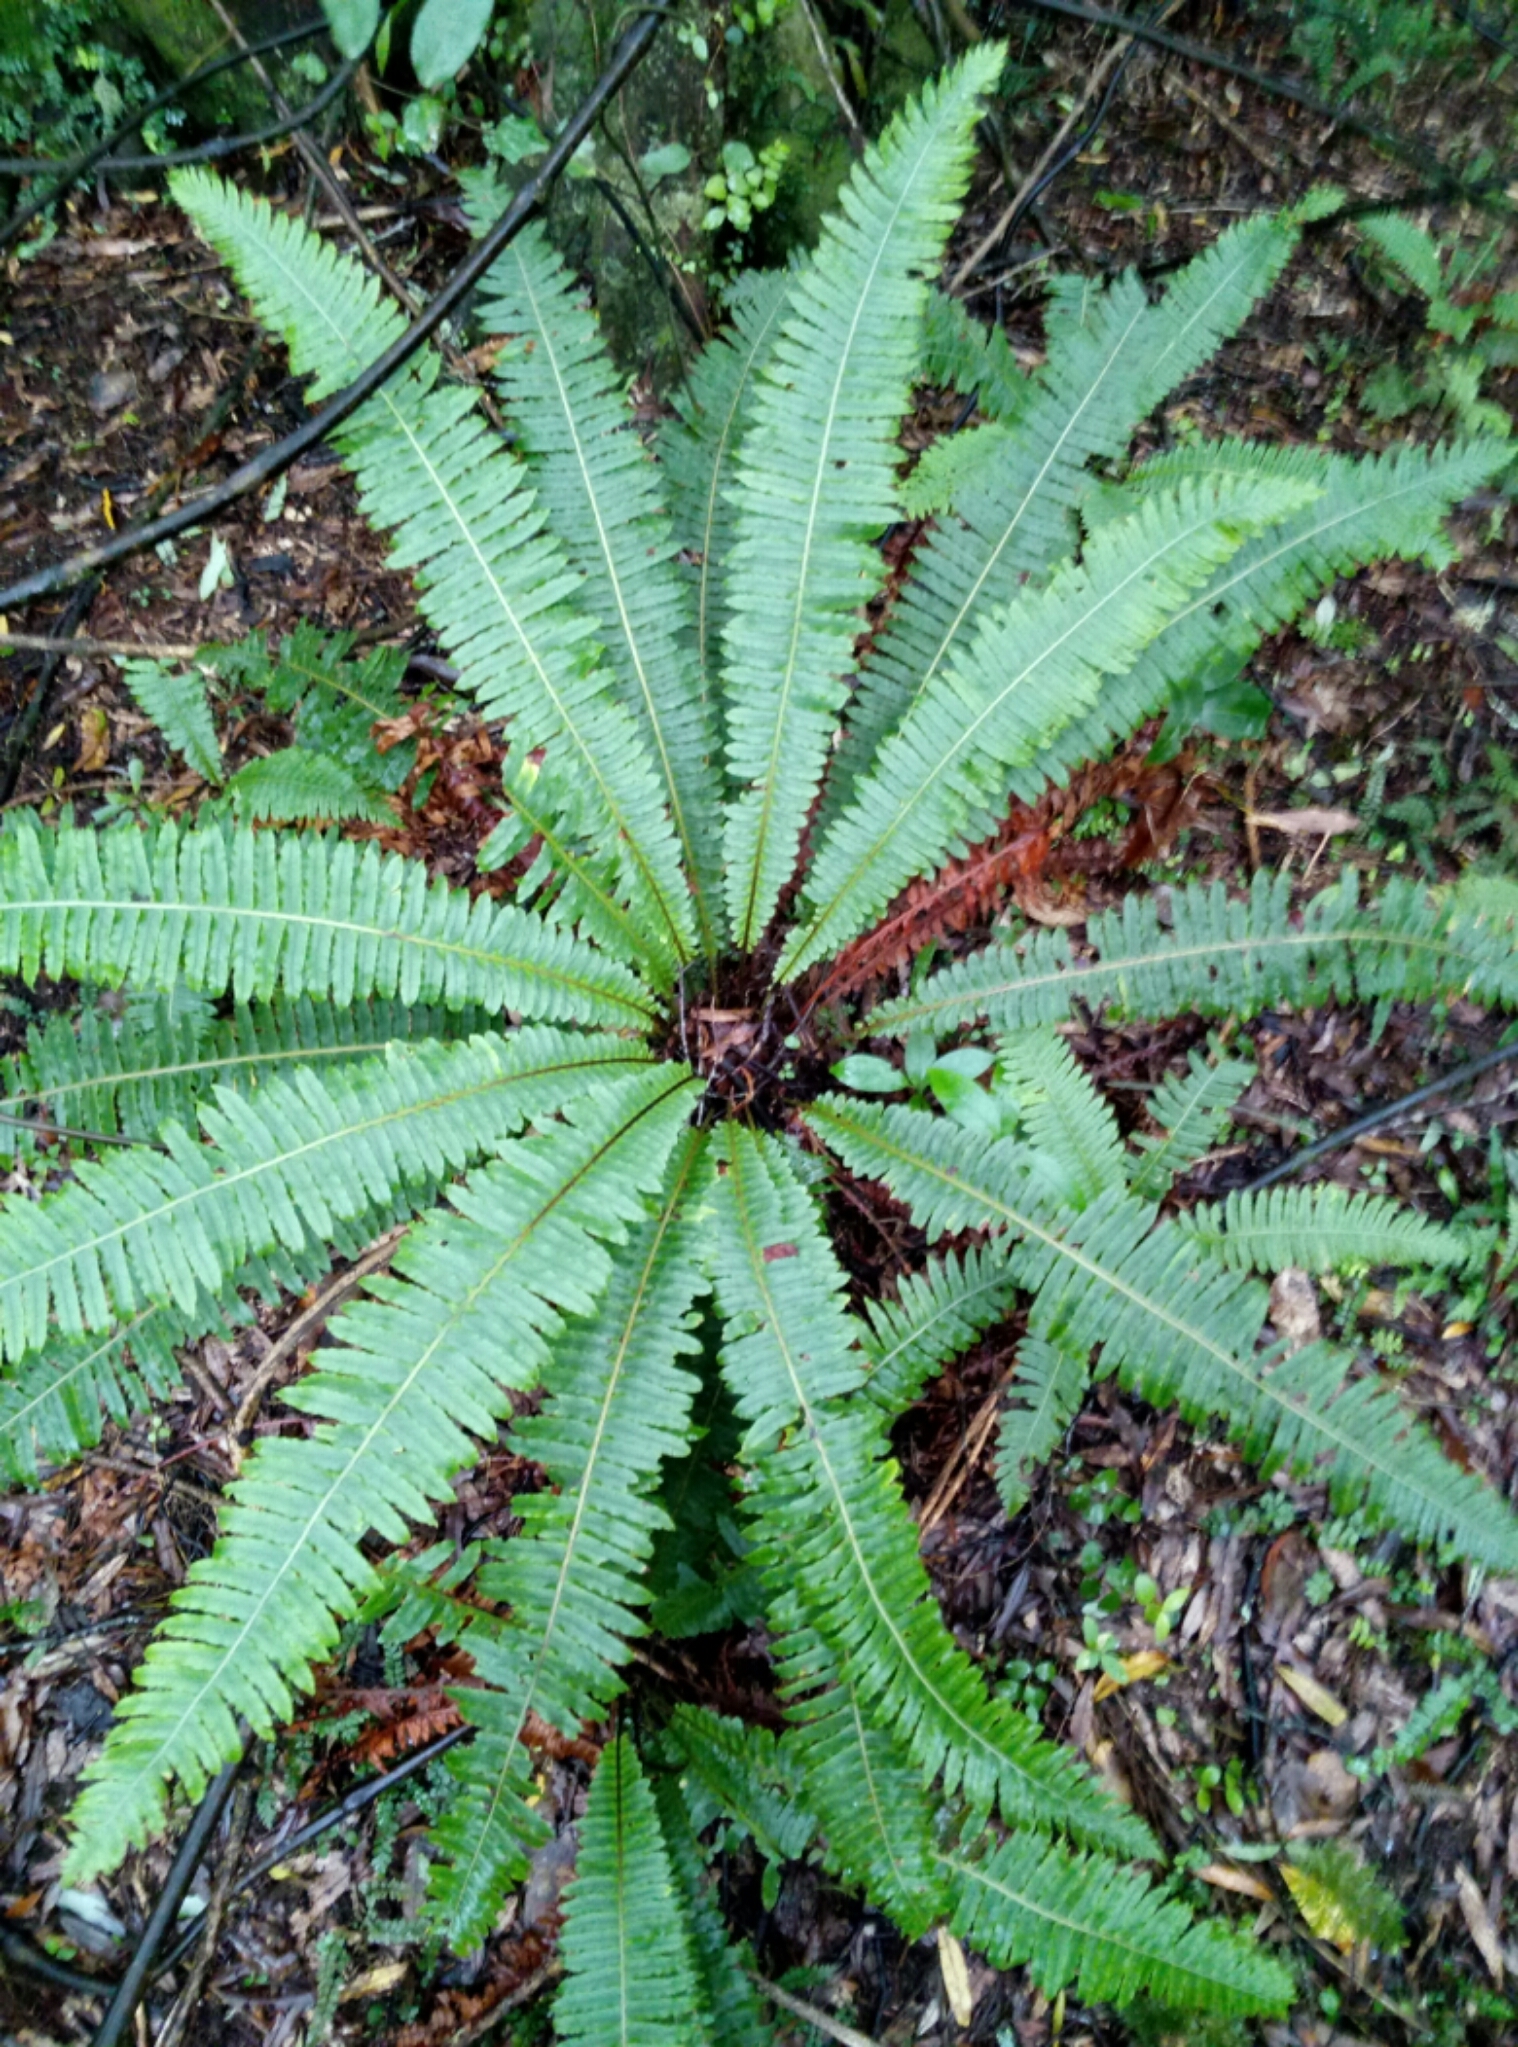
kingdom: Plantae
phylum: Tracheophyta
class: Polypodiopsida
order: Polypodiales
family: Blechnaceae
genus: Lomaria
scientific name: Lomaria discolor
